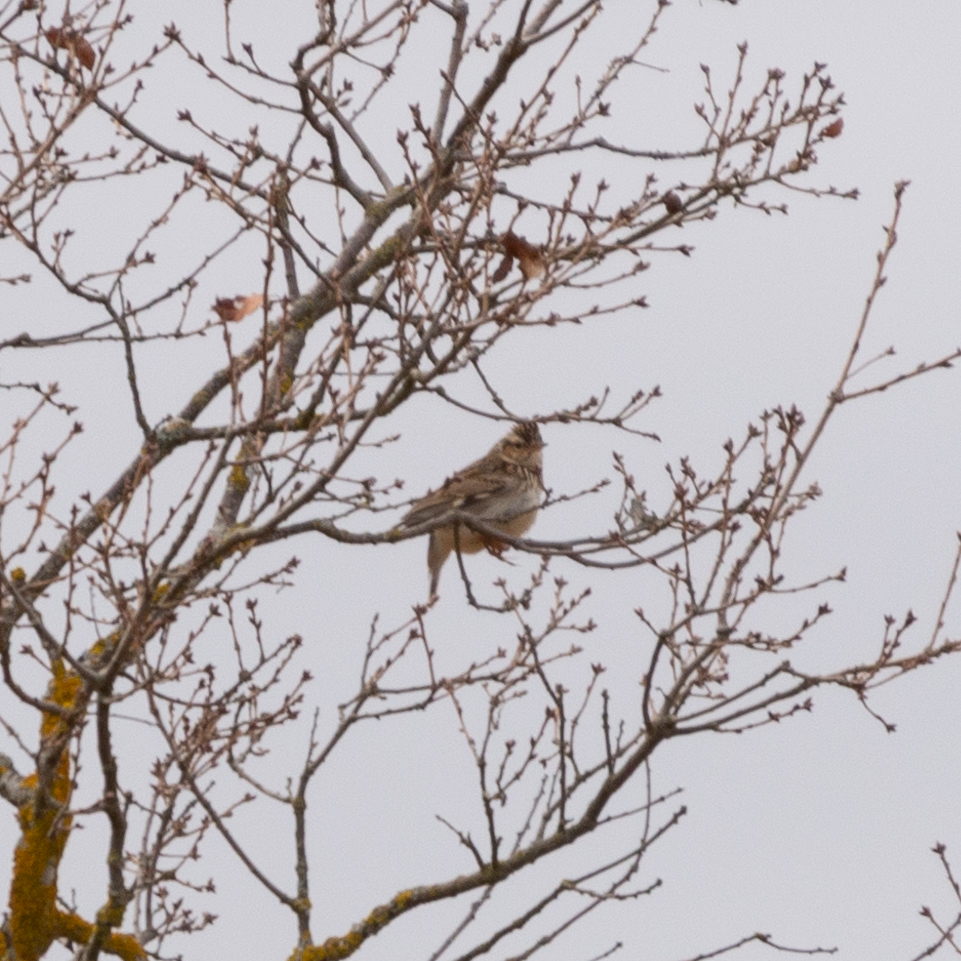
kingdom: Animalia
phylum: Chordata
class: Aves
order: Passeriformes
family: Alaudidae
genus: Lullula
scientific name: Lullula arborea
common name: Woodlark
